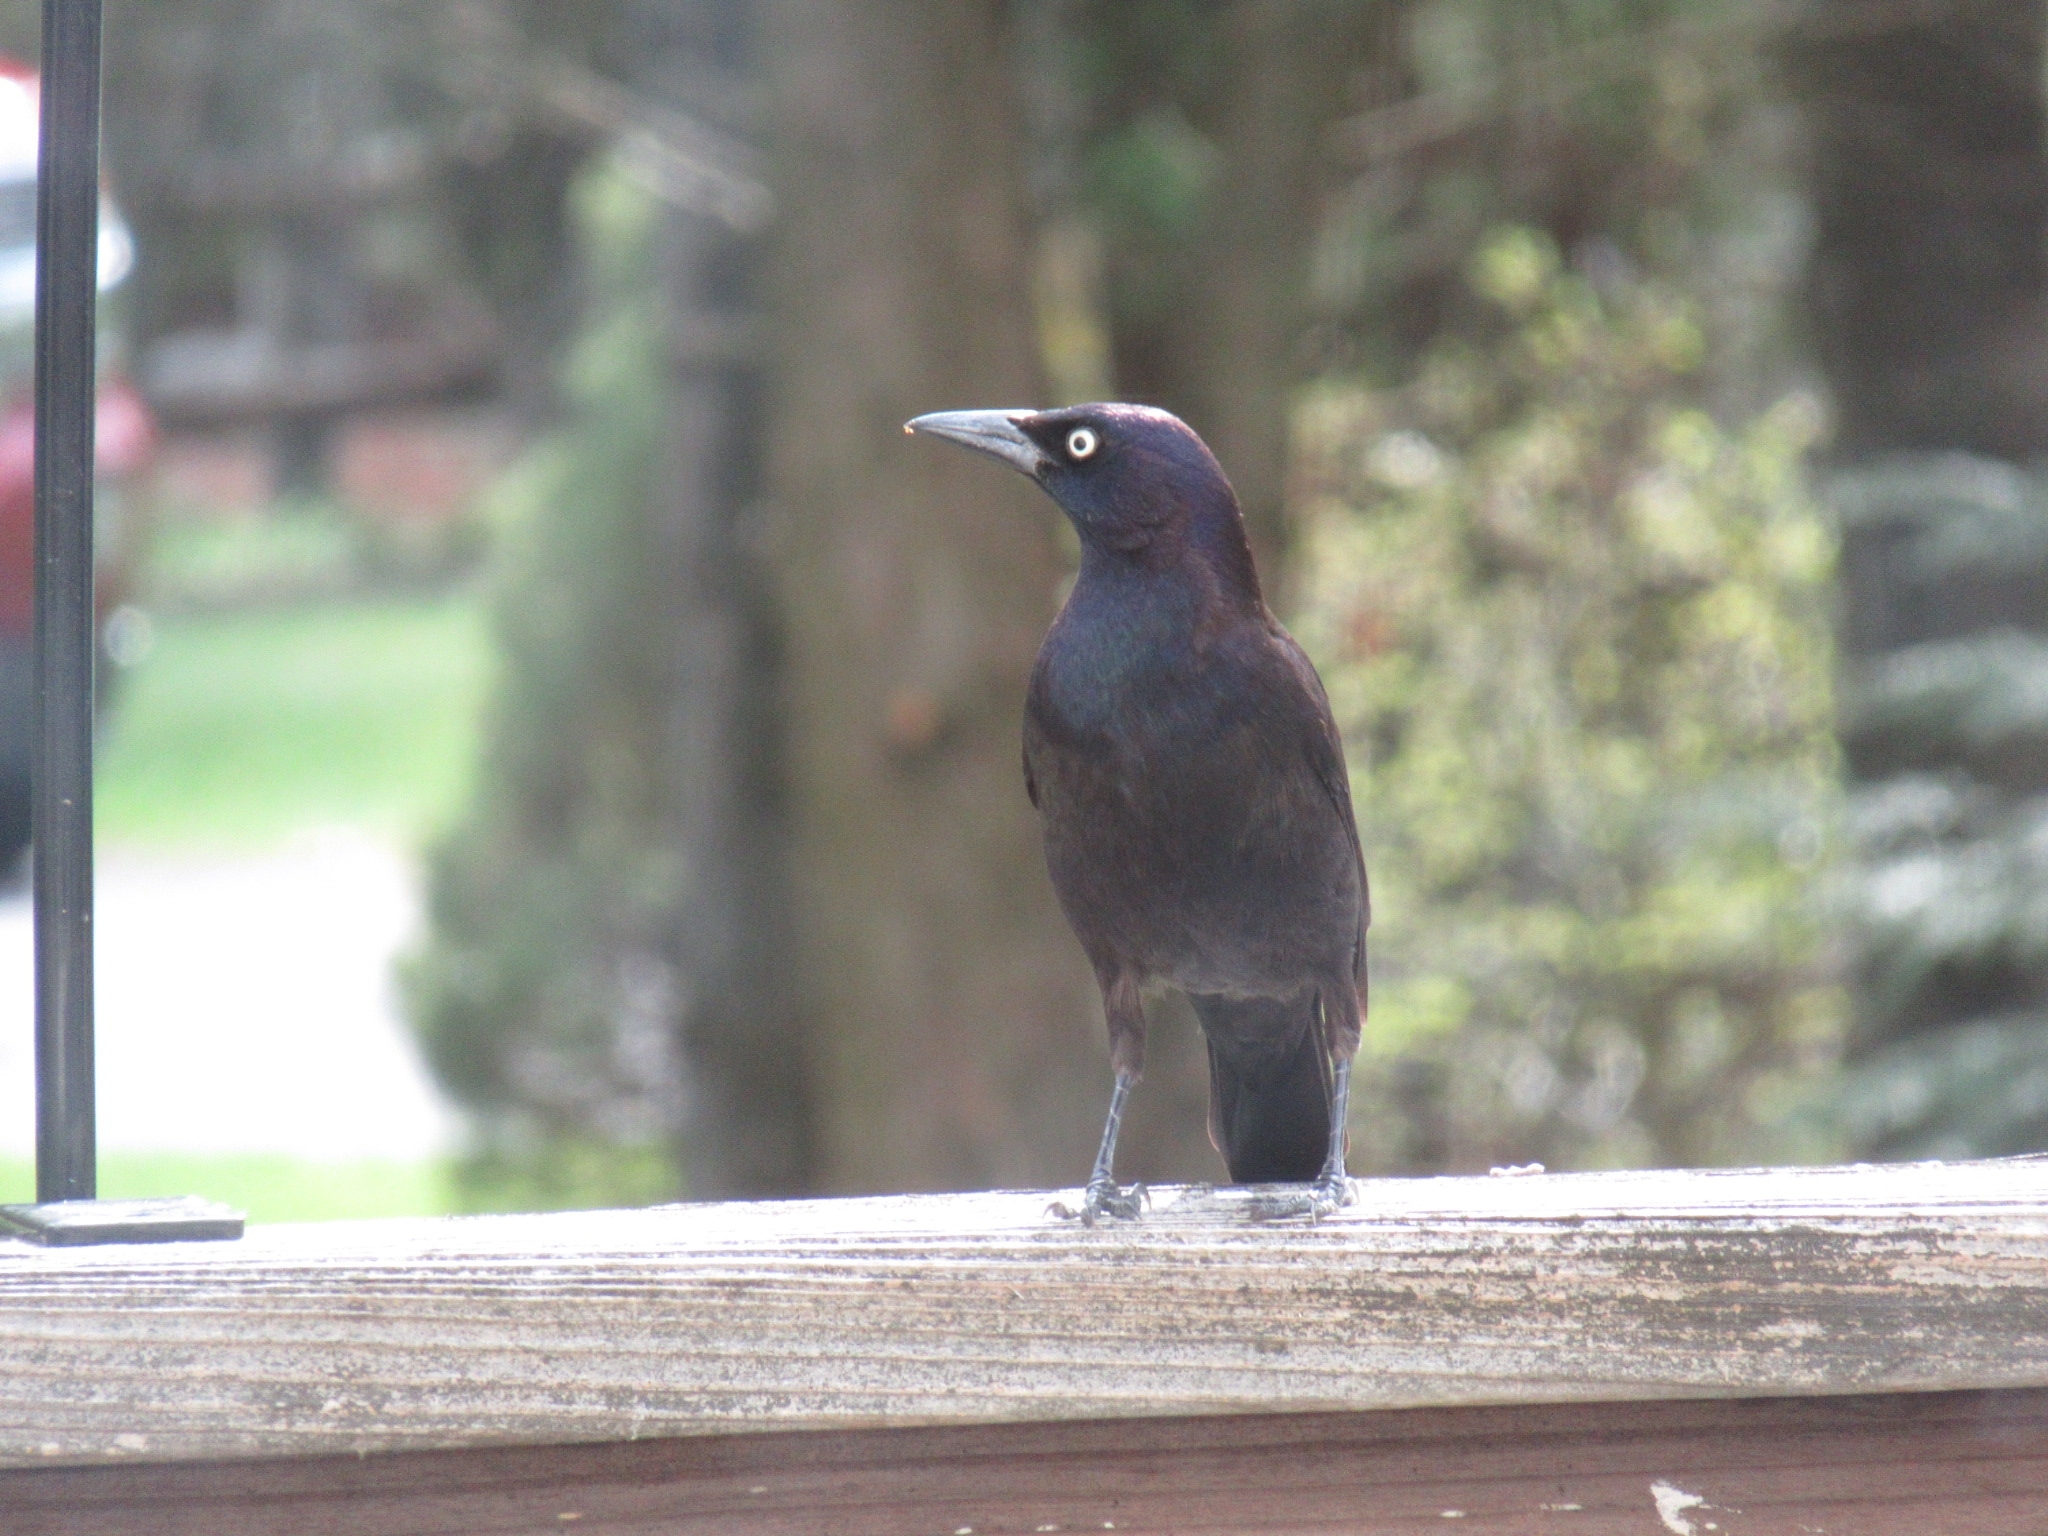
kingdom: Animalia
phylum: Chordata
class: Aves
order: Passeriformes
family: Icteridae
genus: Quiscalus
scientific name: Quiscalus quiscula
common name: Common grackle
